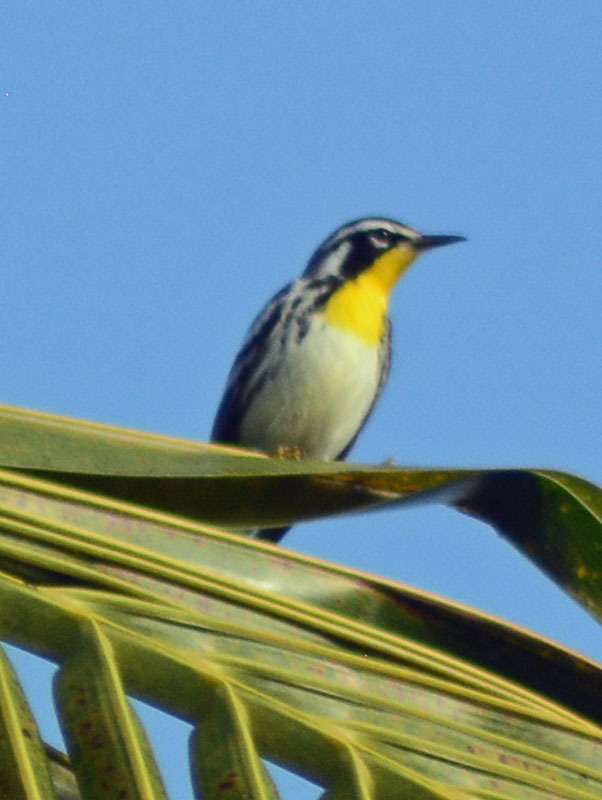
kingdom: Animalia
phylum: Chordata
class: Aves
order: Passeriformes
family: Parulidae
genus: Setophaga
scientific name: Setophaga dominica
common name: Yellow-throated warbler
